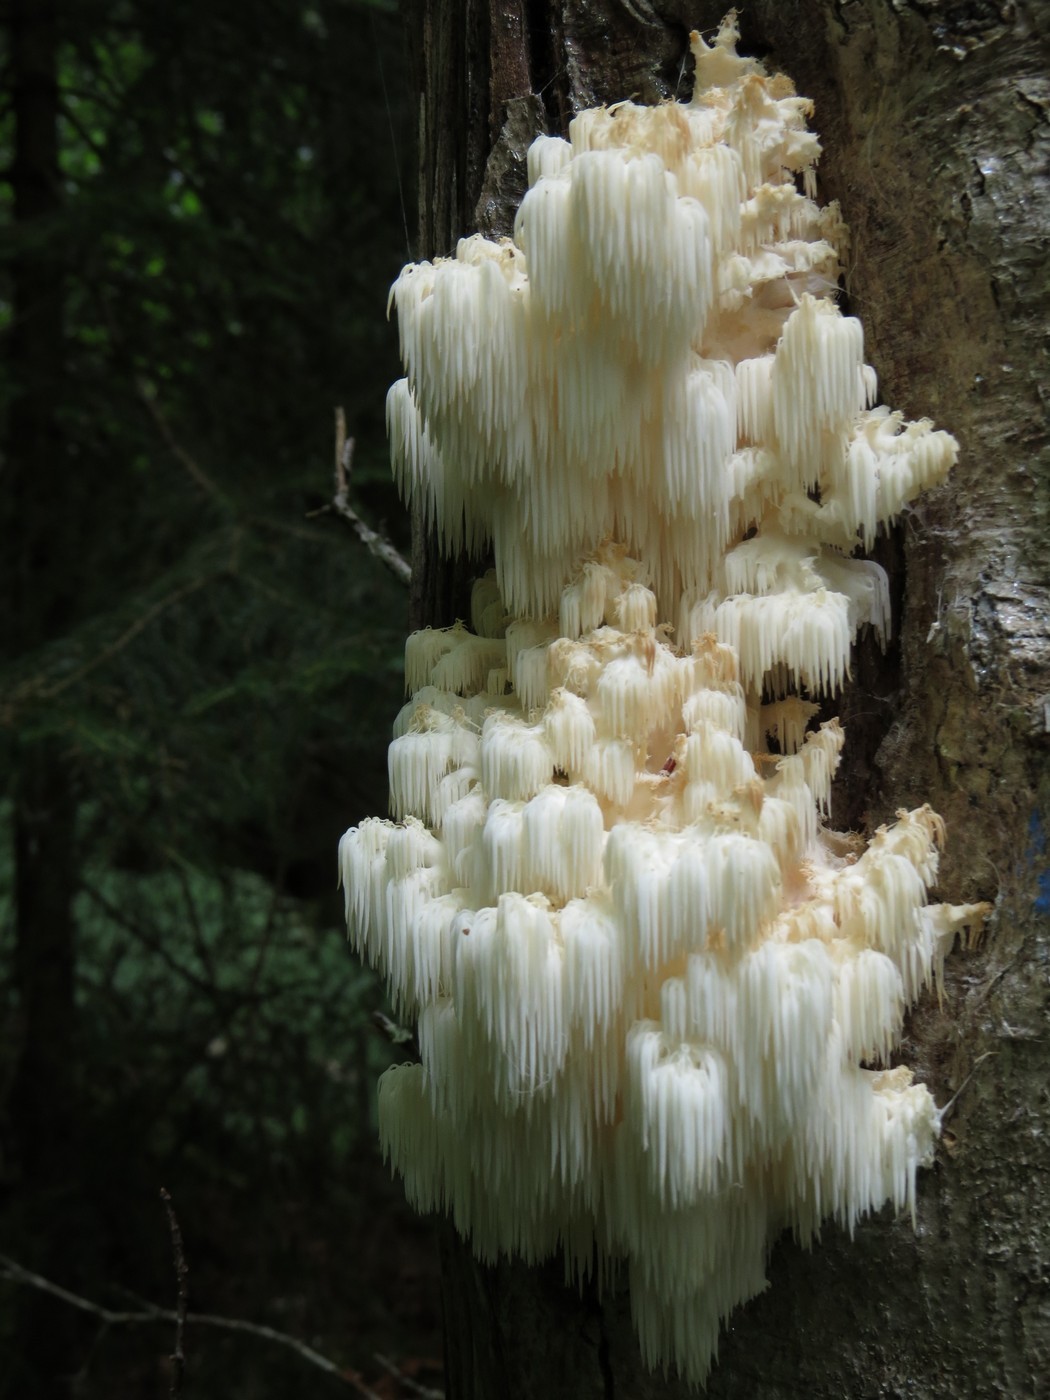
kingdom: Fungi
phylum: Basidiomycota
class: Agaricomycetes
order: Russulales
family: Hericiaceae
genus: Hericium
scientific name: Hericium americanum
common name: Bear's head tooth
